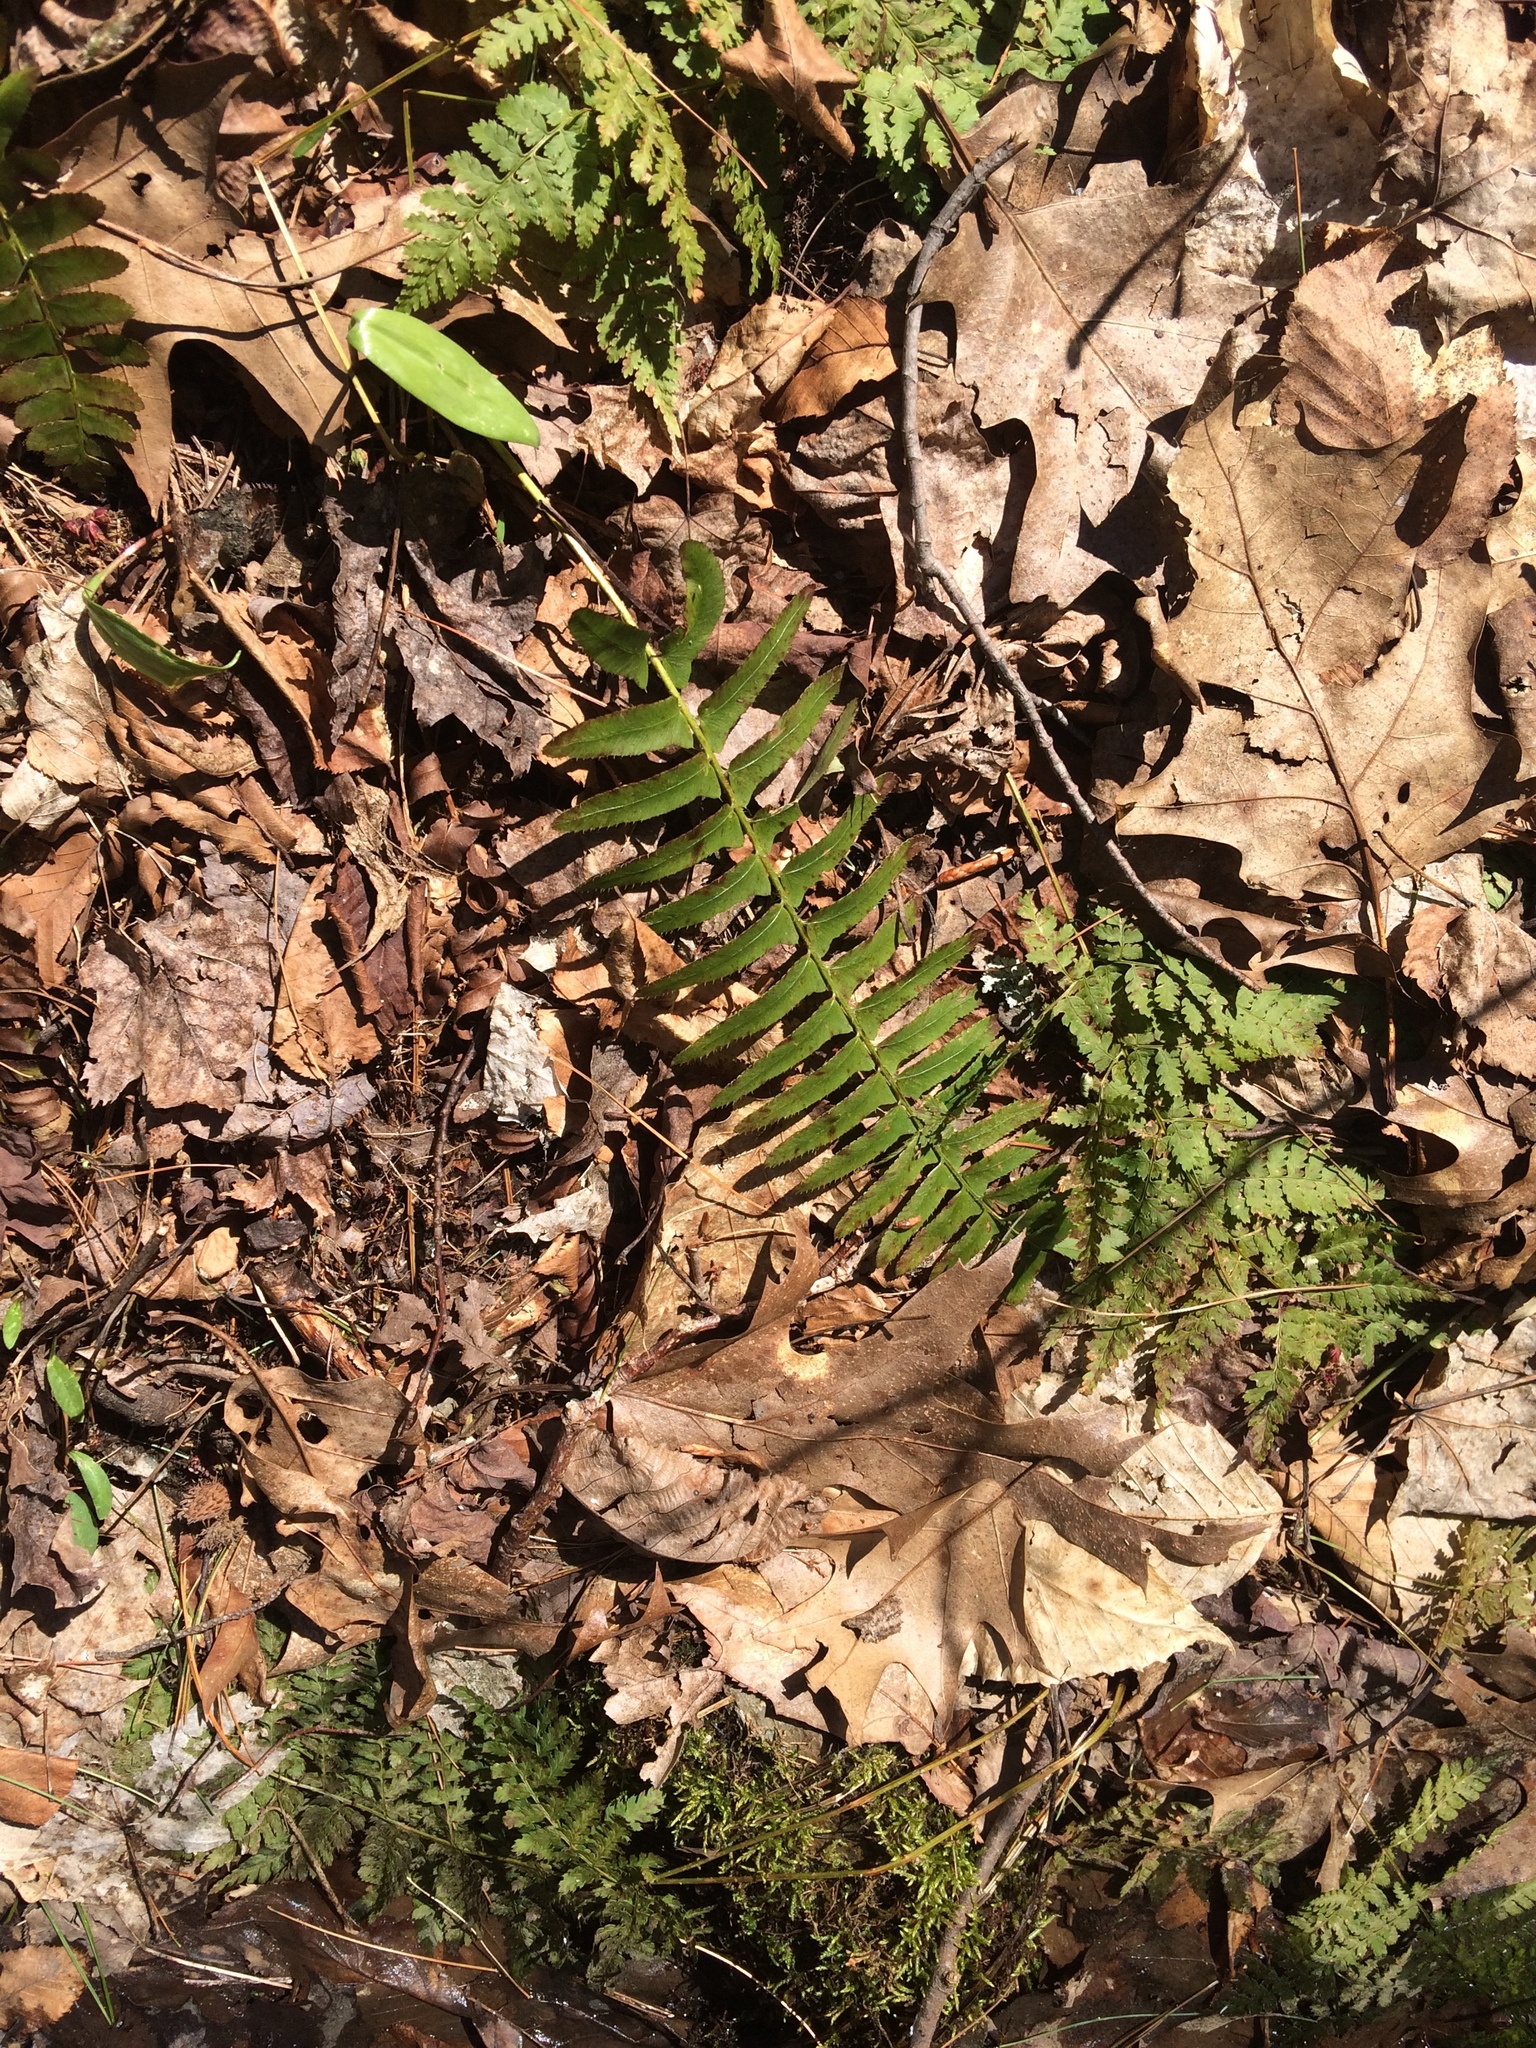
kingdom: Plantae
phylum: Tracheophyta
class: Polypodiopsida
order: Polypodiales
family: Dryopteridaceae
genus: Polystichum
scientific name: Polystichum acrostichoides
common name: Christmas fern
